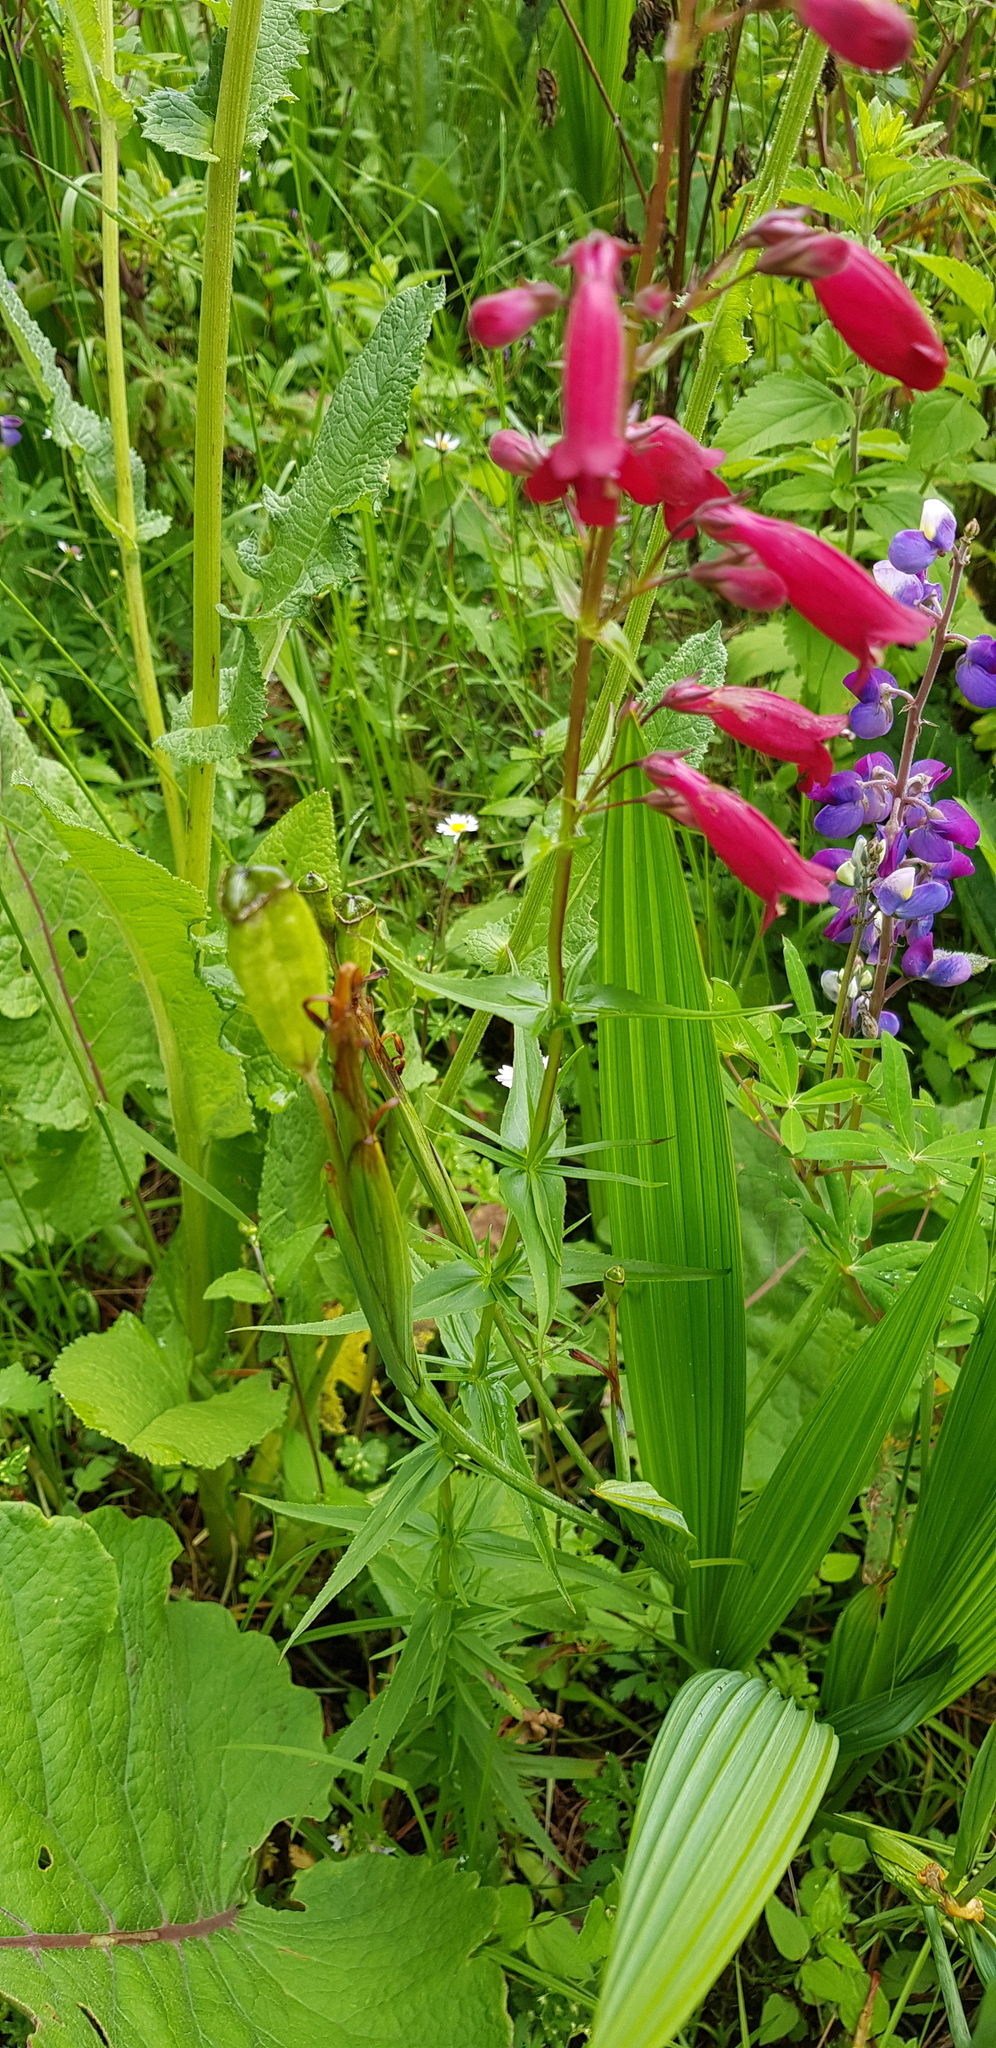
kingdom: Plantae
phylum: Tracheophyta
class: Magnoliopsida
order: Lamiales
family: Plantaginaceae
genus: Penstemon
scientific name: Penstemon roseus
